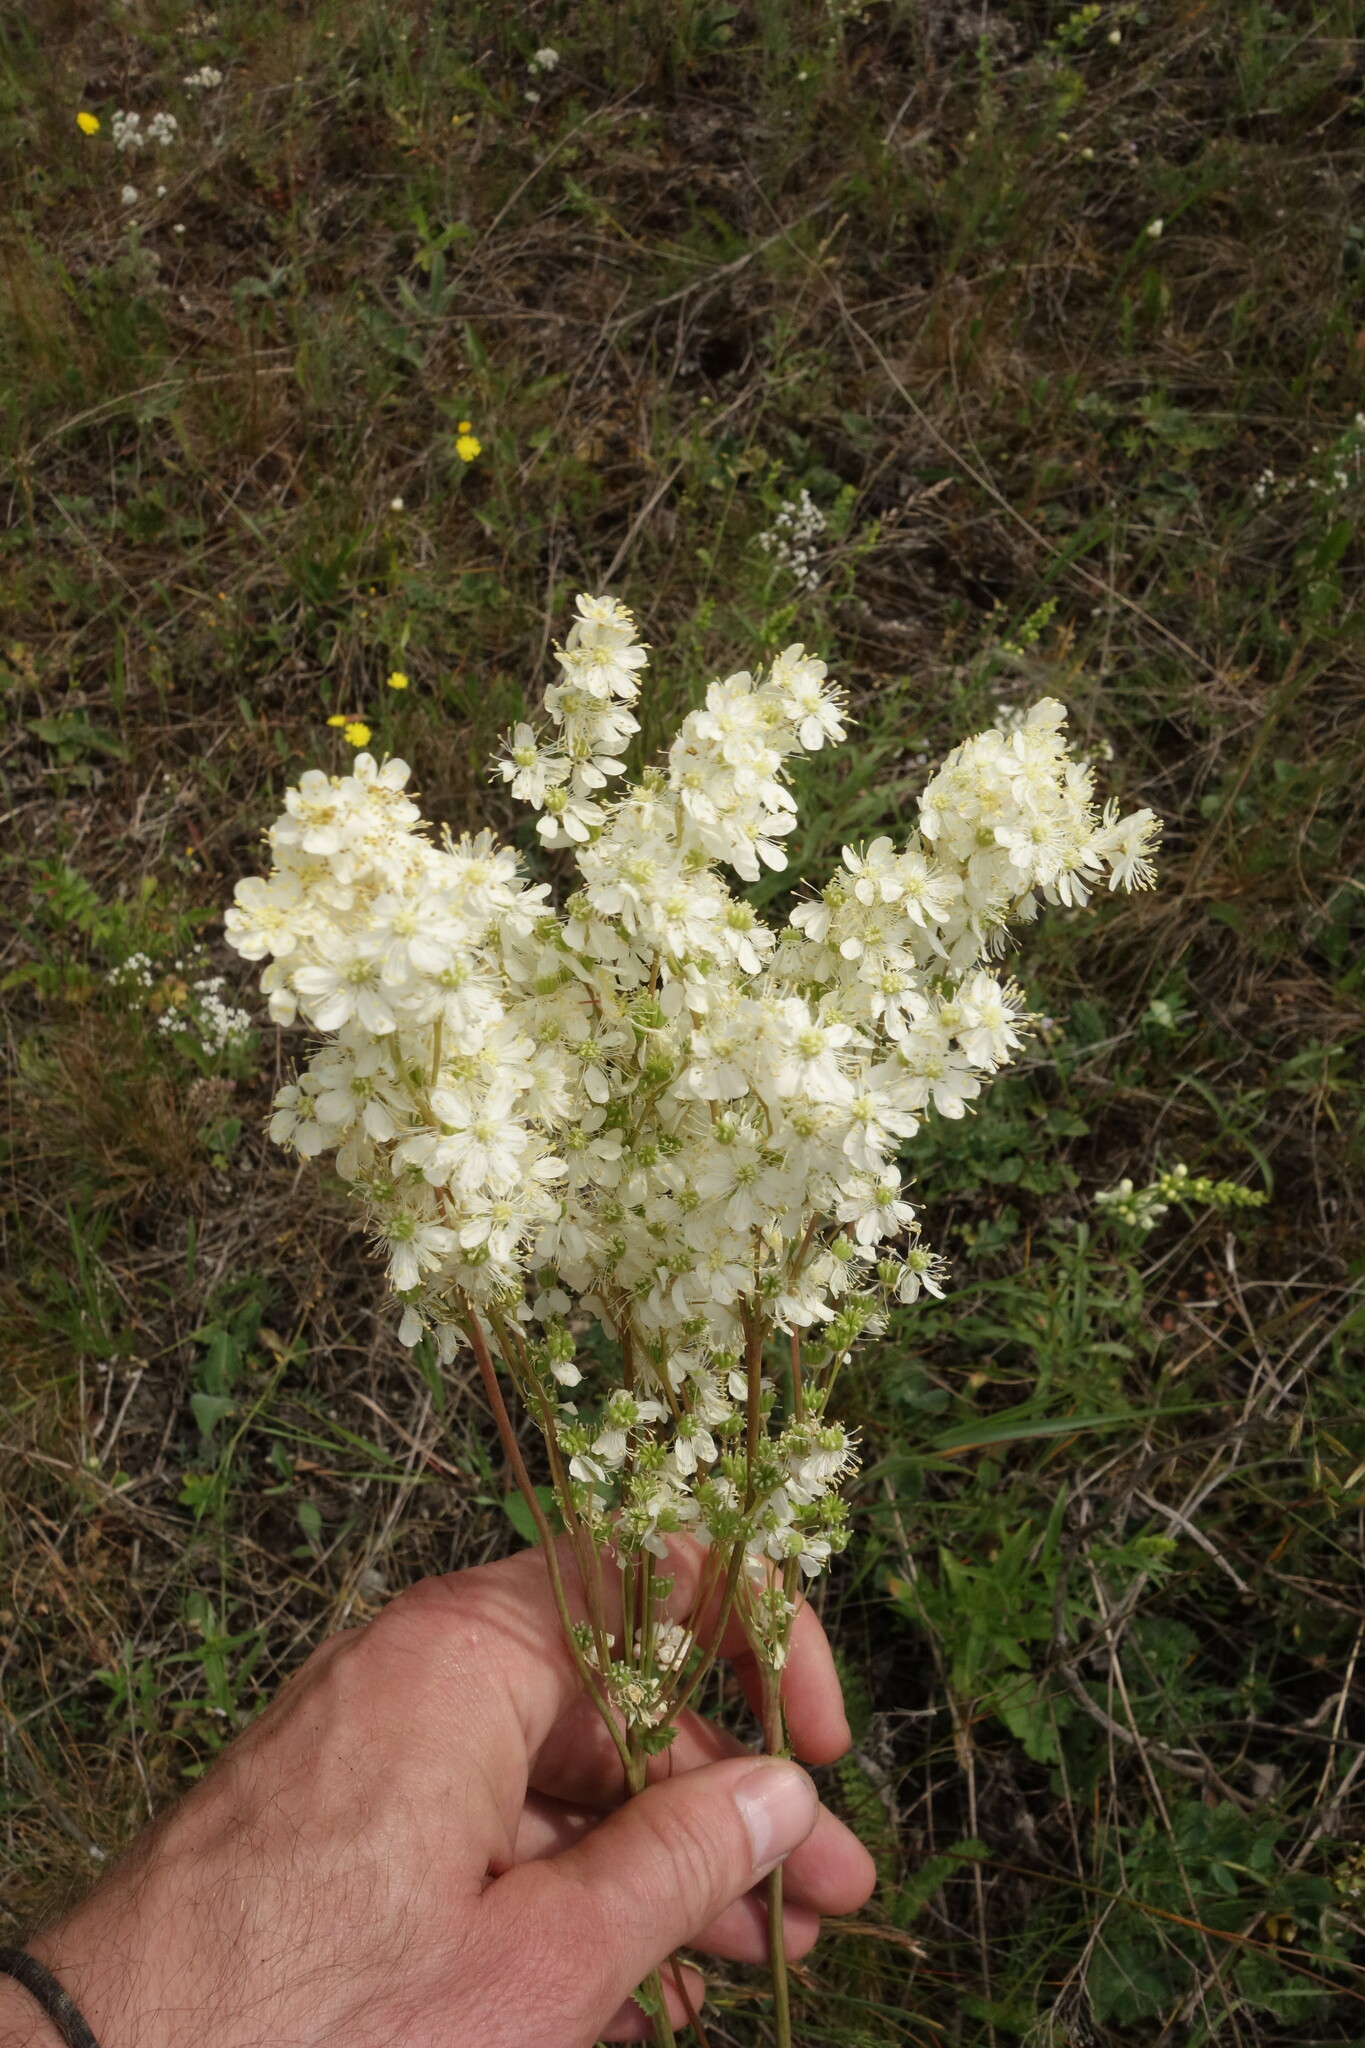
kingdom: Plantae
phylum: Tracheophyta
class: Magnoliopsida
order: Rosales
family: Rosaceae
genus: Filipendula
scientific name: Filipendula vulgaris
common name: Dropwort
